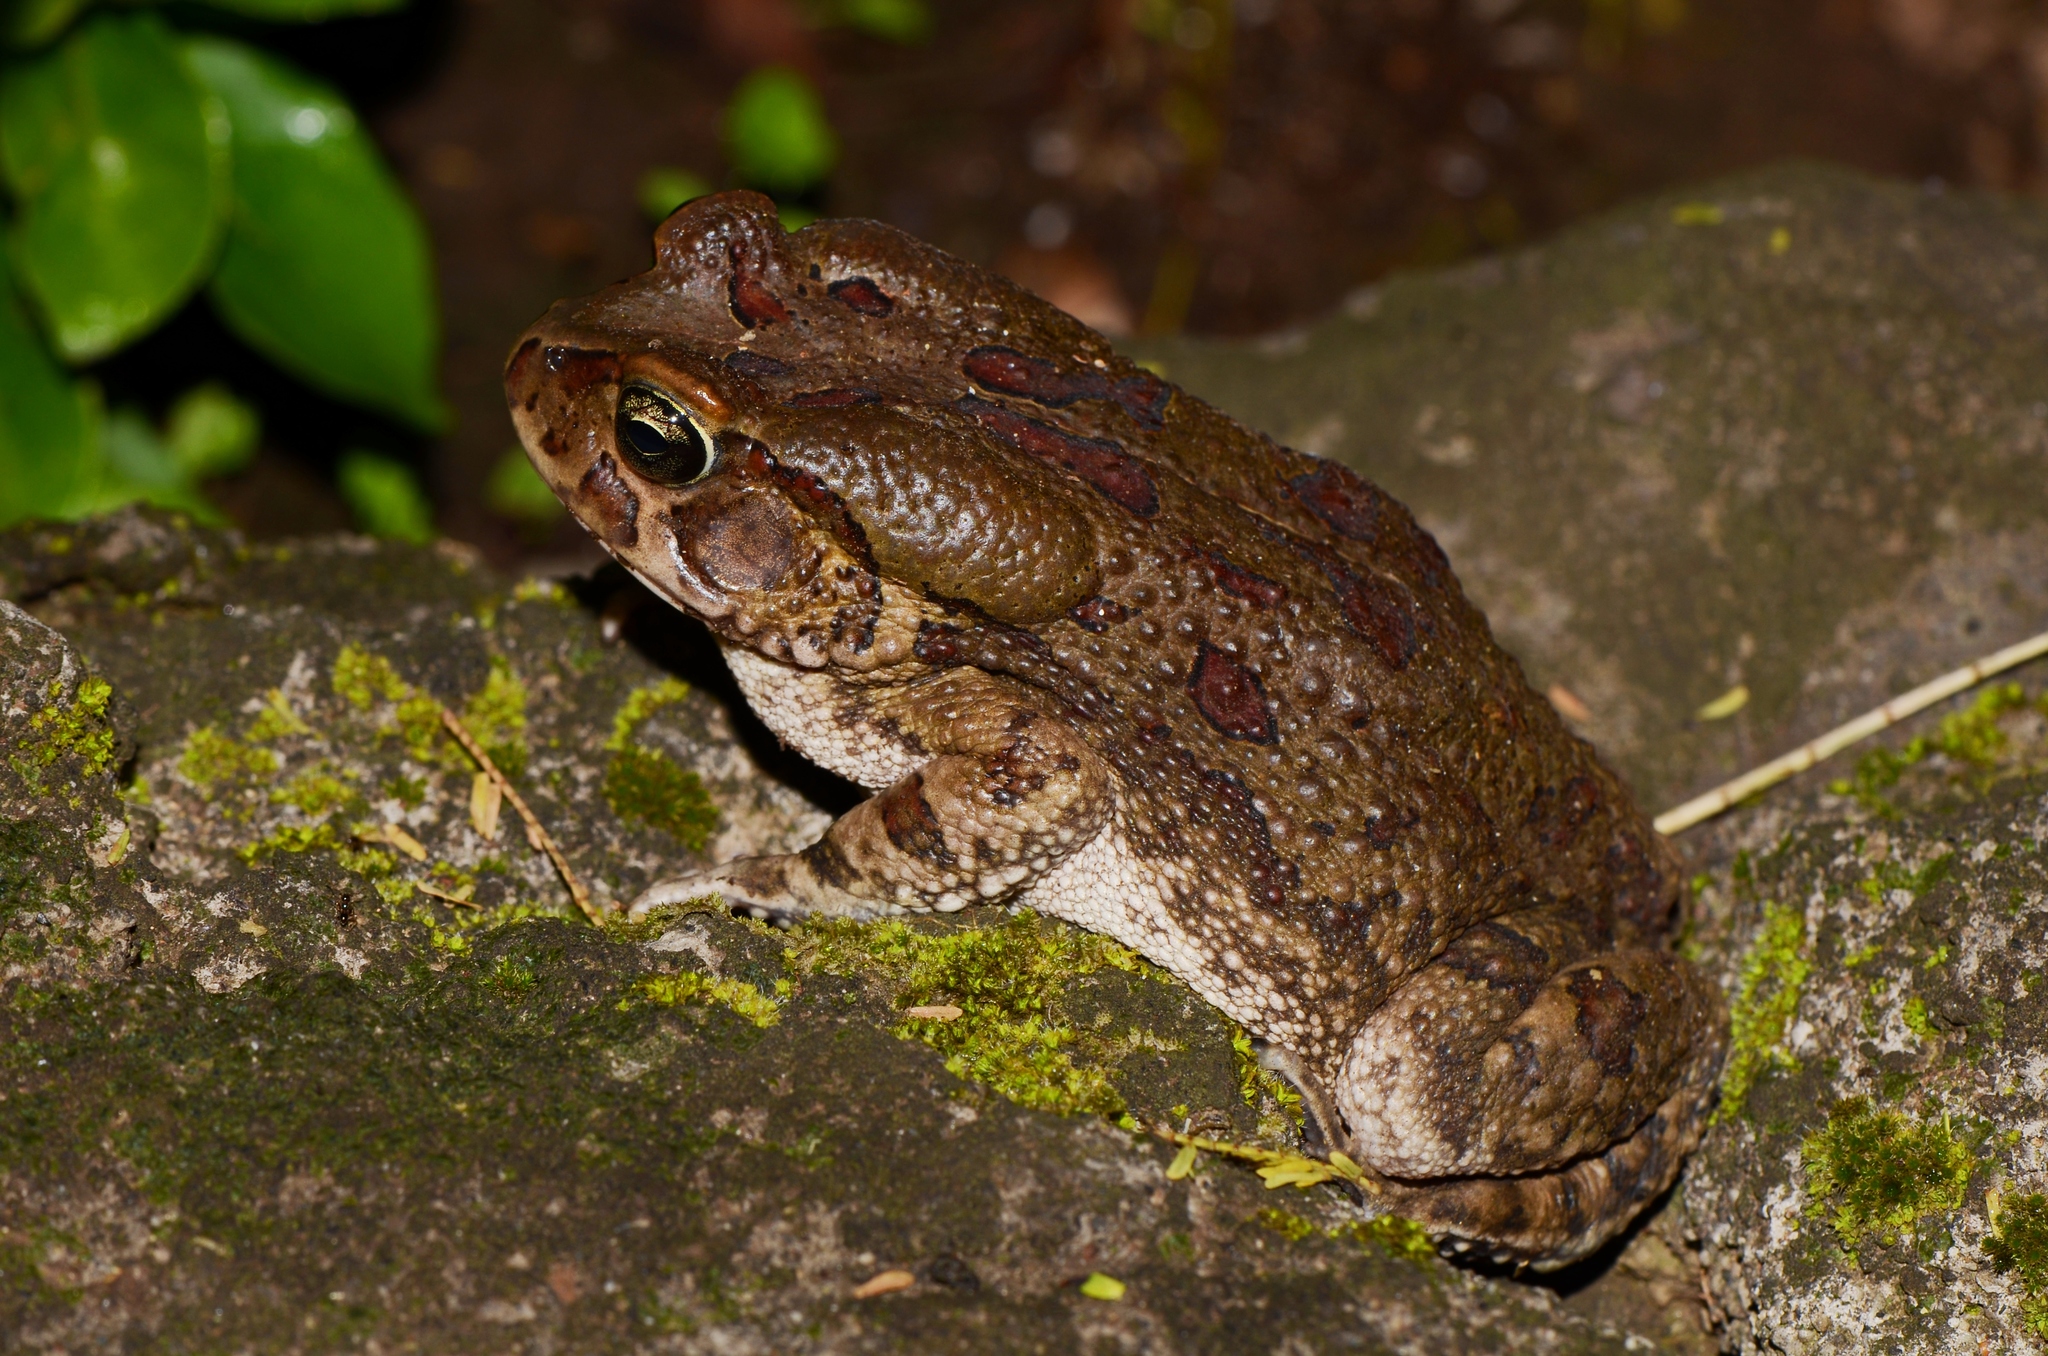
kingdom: Animalia
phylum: Chordata
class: Amphibia
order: Anura
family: Bufonidae
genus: Sclerophrys
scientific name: Sclerophrys garmani
